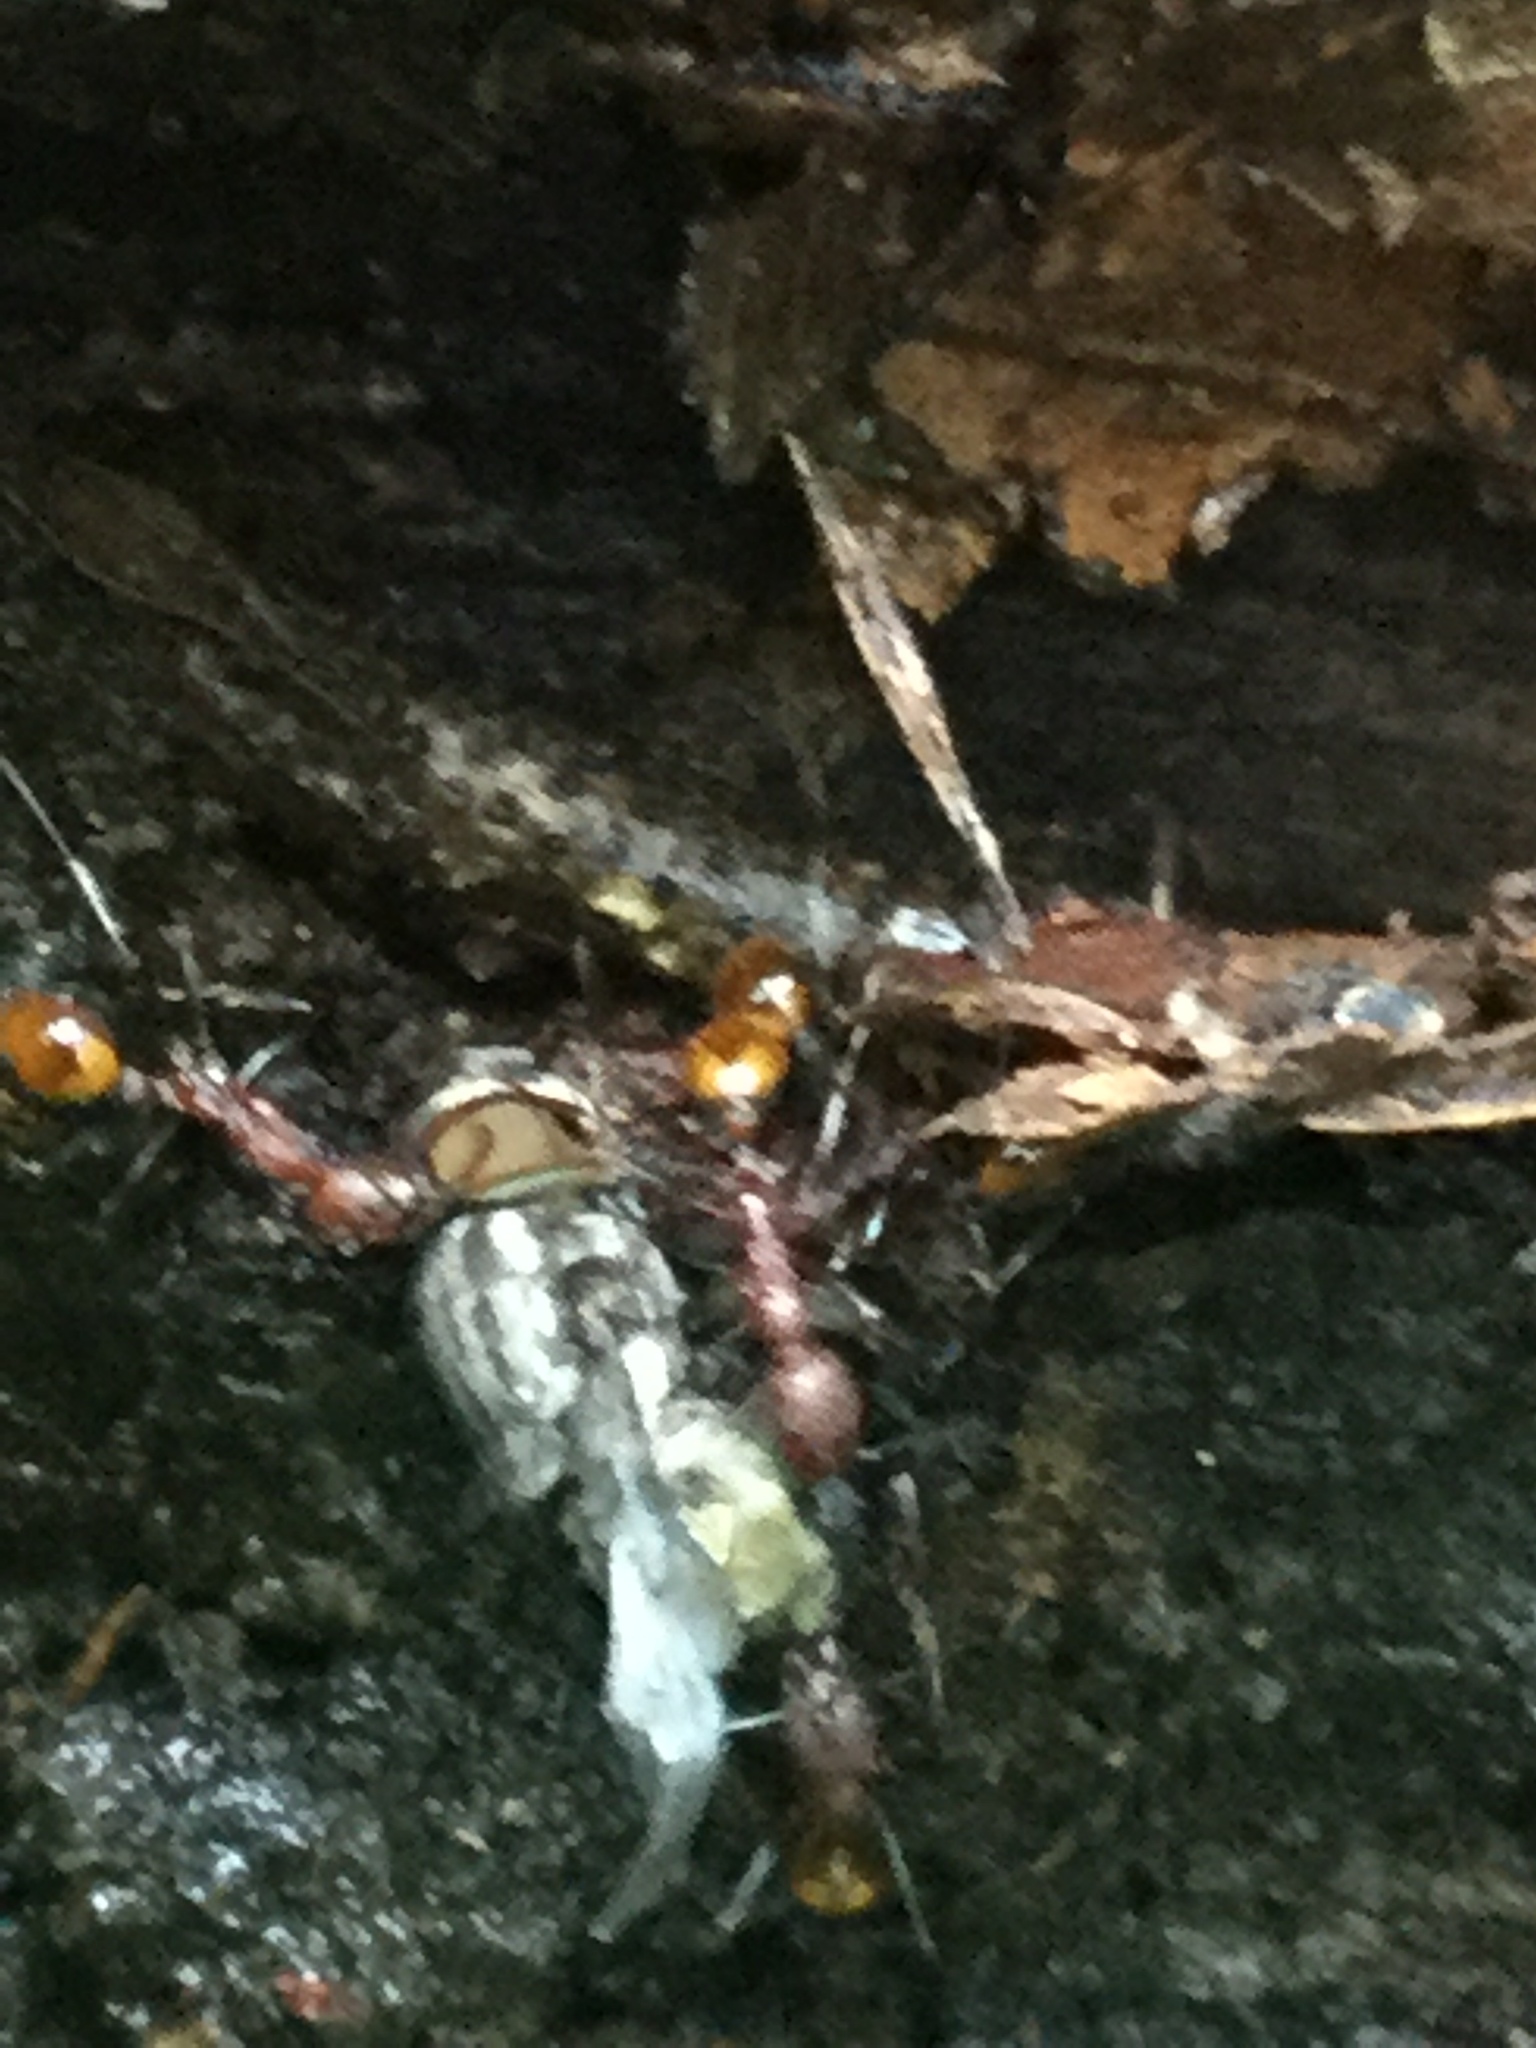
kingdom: Animalia
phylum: Arthropoda
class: Insecta
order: Hymenoptera
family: Formicidae
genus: Aphaenogaster
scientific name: Aphaenogaster lamellidens
